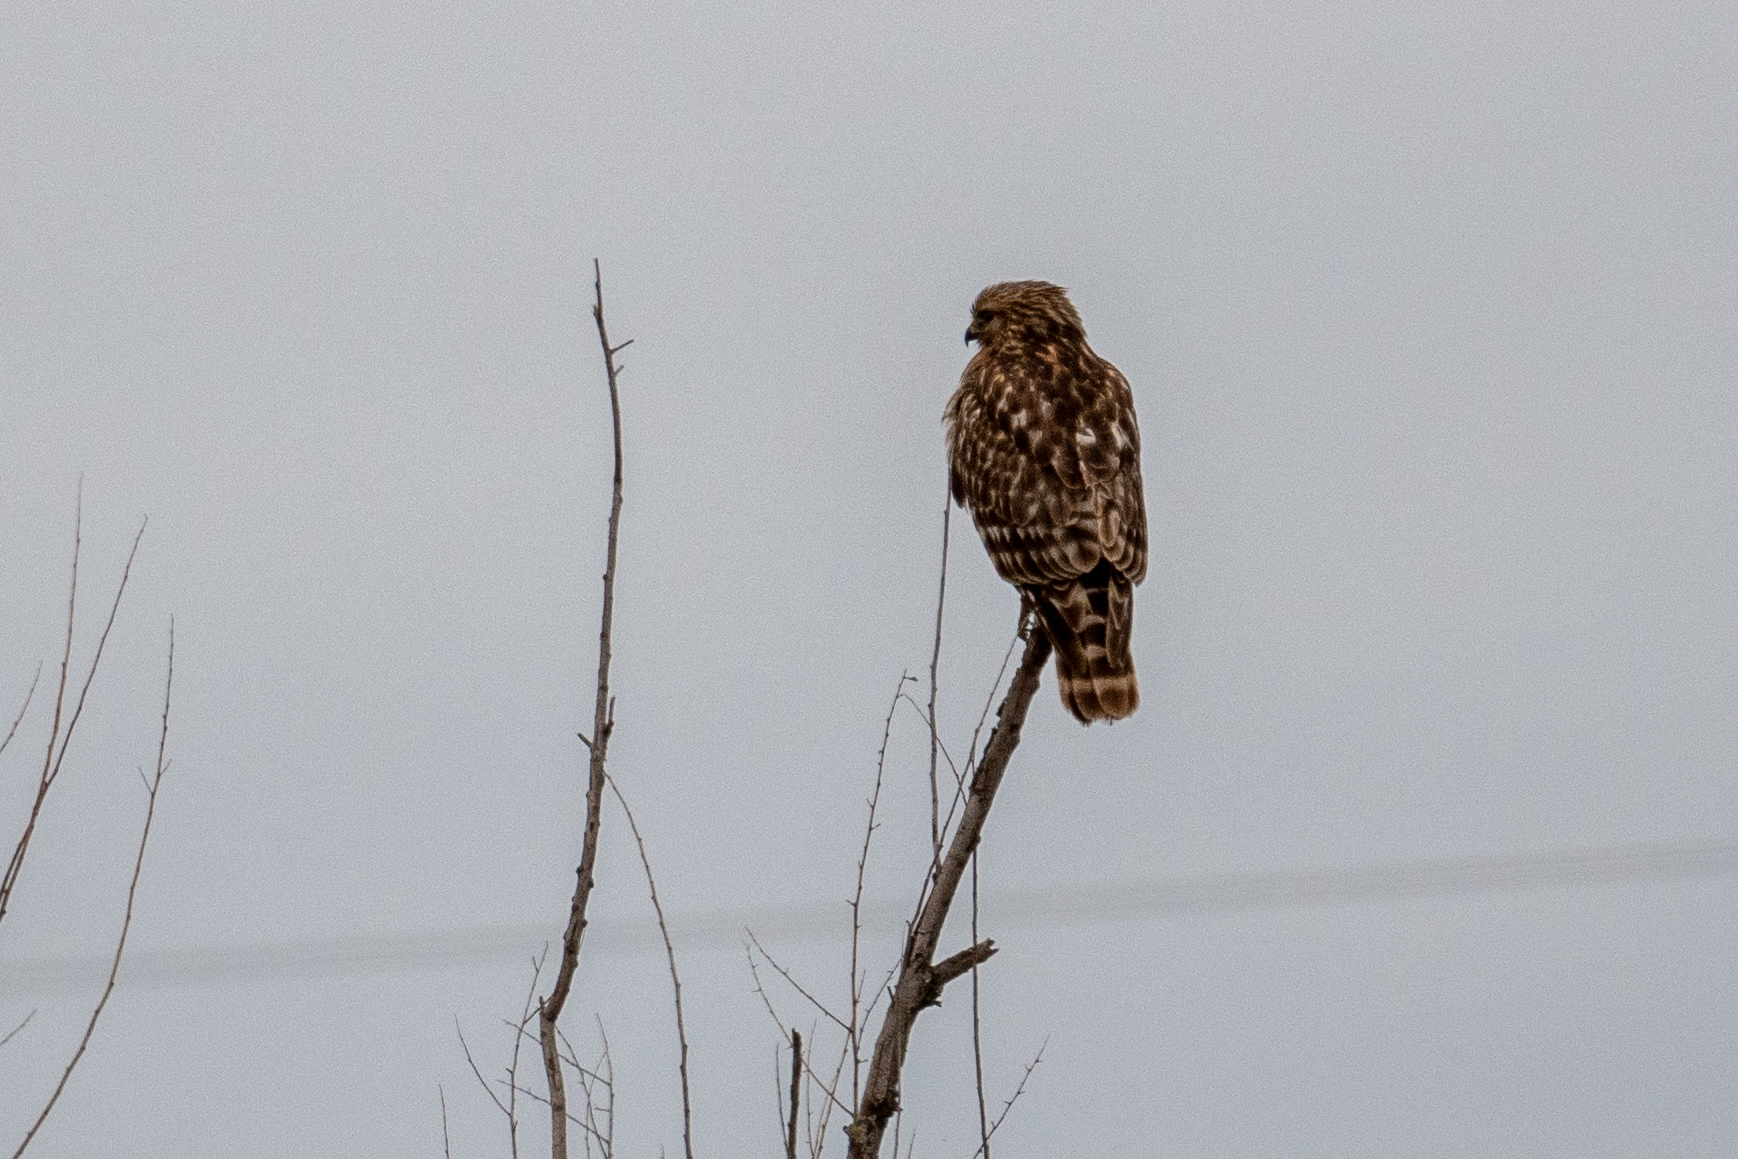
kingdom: Animalia
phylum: Chordata
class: Aves
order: Accipitriformes
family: Accipitridae
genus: Buteo
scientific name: Buteo lineatus
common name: Red-shouldered hawk
